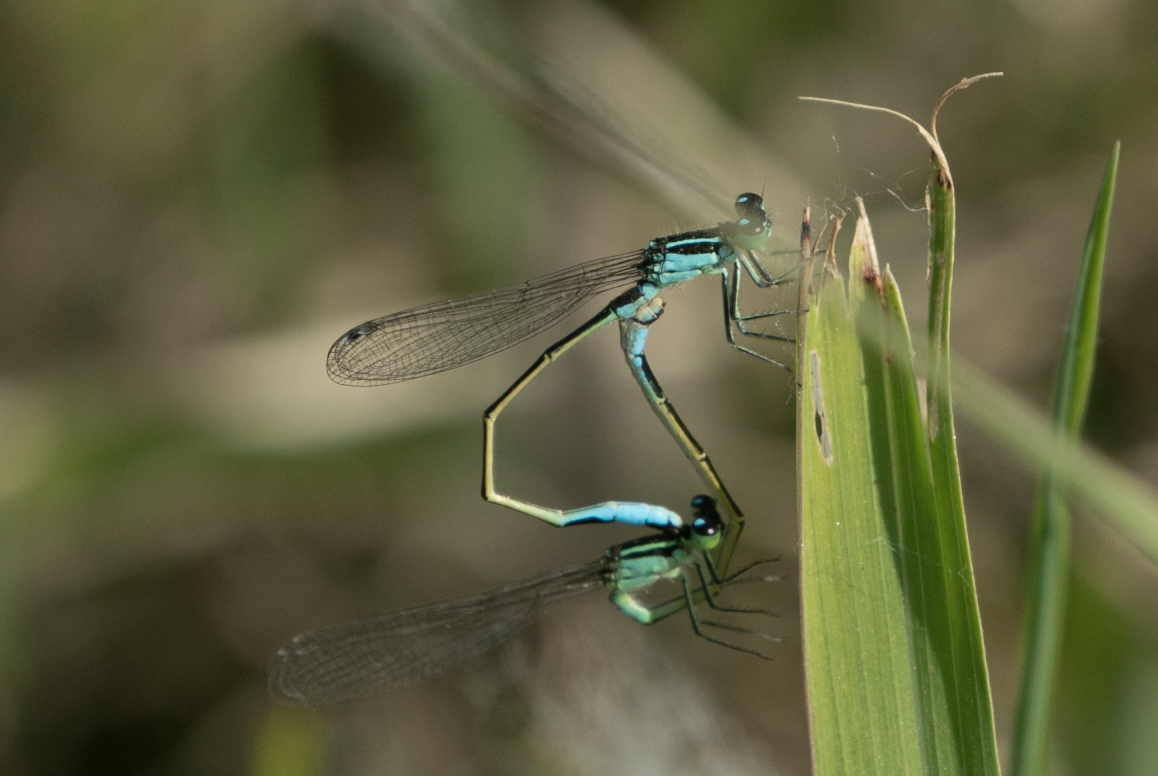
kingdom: Animalia
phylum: Arthropoda
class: Insecta
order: Odonata
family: Coenagrionidae
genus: Ischnura
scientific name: Ischnura elegans
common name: Blue-tailed damselfly
